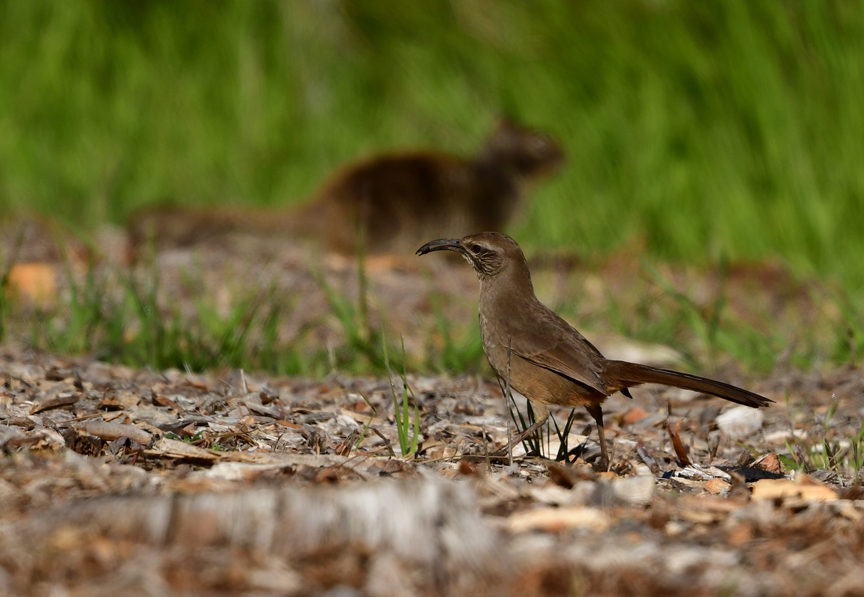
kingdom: Animalia
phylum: Chordata
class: Aves
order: Passeriformes
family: Mimidae
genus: Toxostoma
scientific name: Toxostoma redivivum
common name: California thrasher
